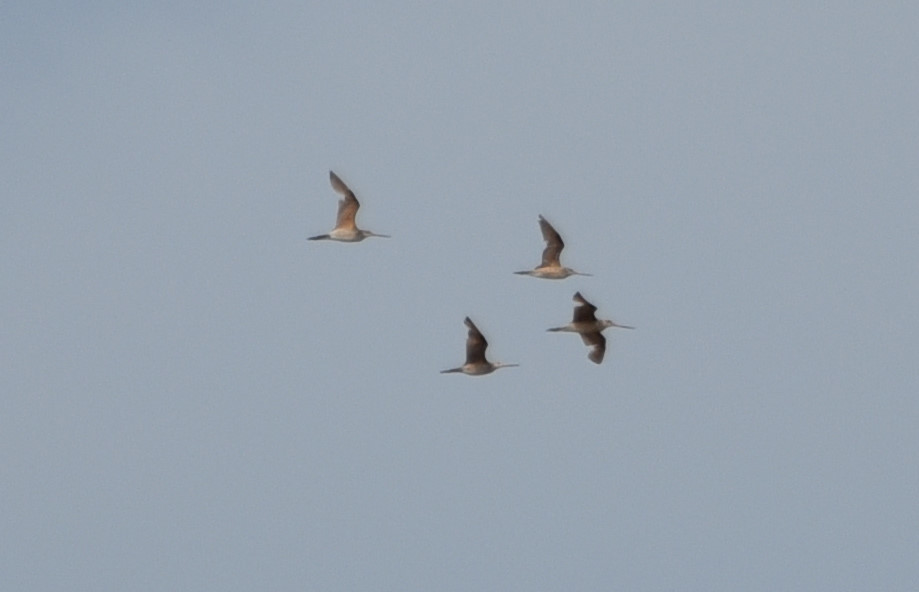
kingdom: Animalia
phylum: Chordata
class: Aves
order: Charadriiformes
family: Scolopacidae
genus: Limosa
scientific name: Limosa fedoa
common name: Marbled godwit
